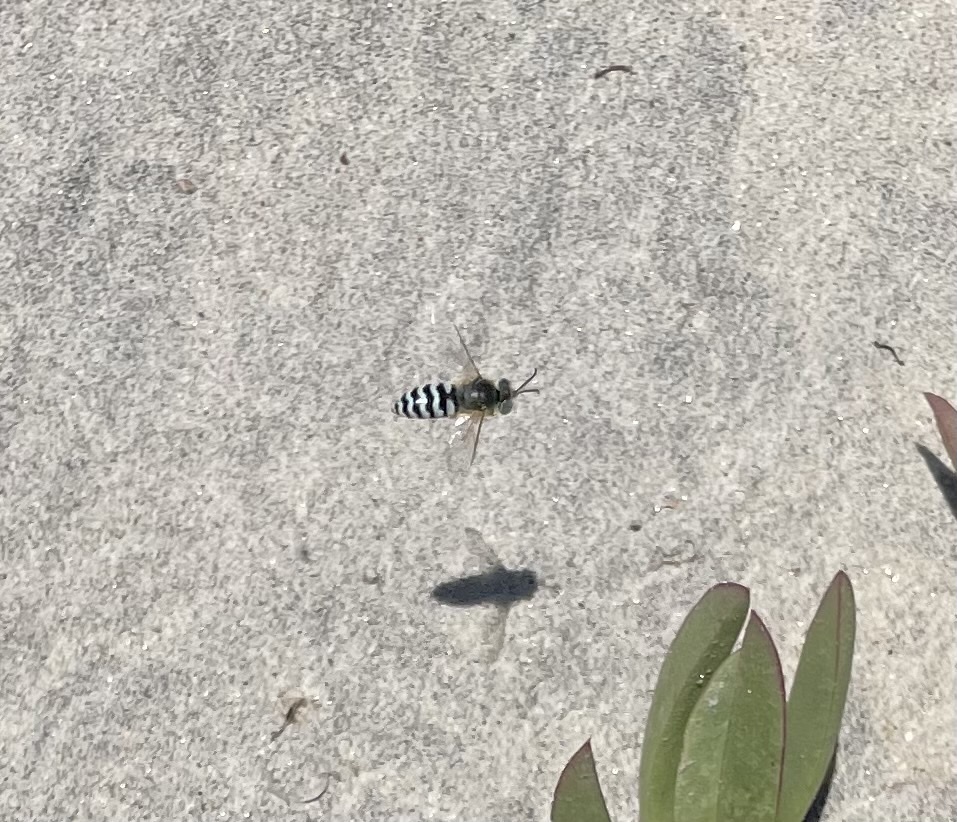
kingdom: Animalia
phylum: Arthropoda
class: Insecta
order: Hymenoptera
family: Crabronidae
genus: Bembix
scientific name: Bembix americana
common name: American sand wasp
